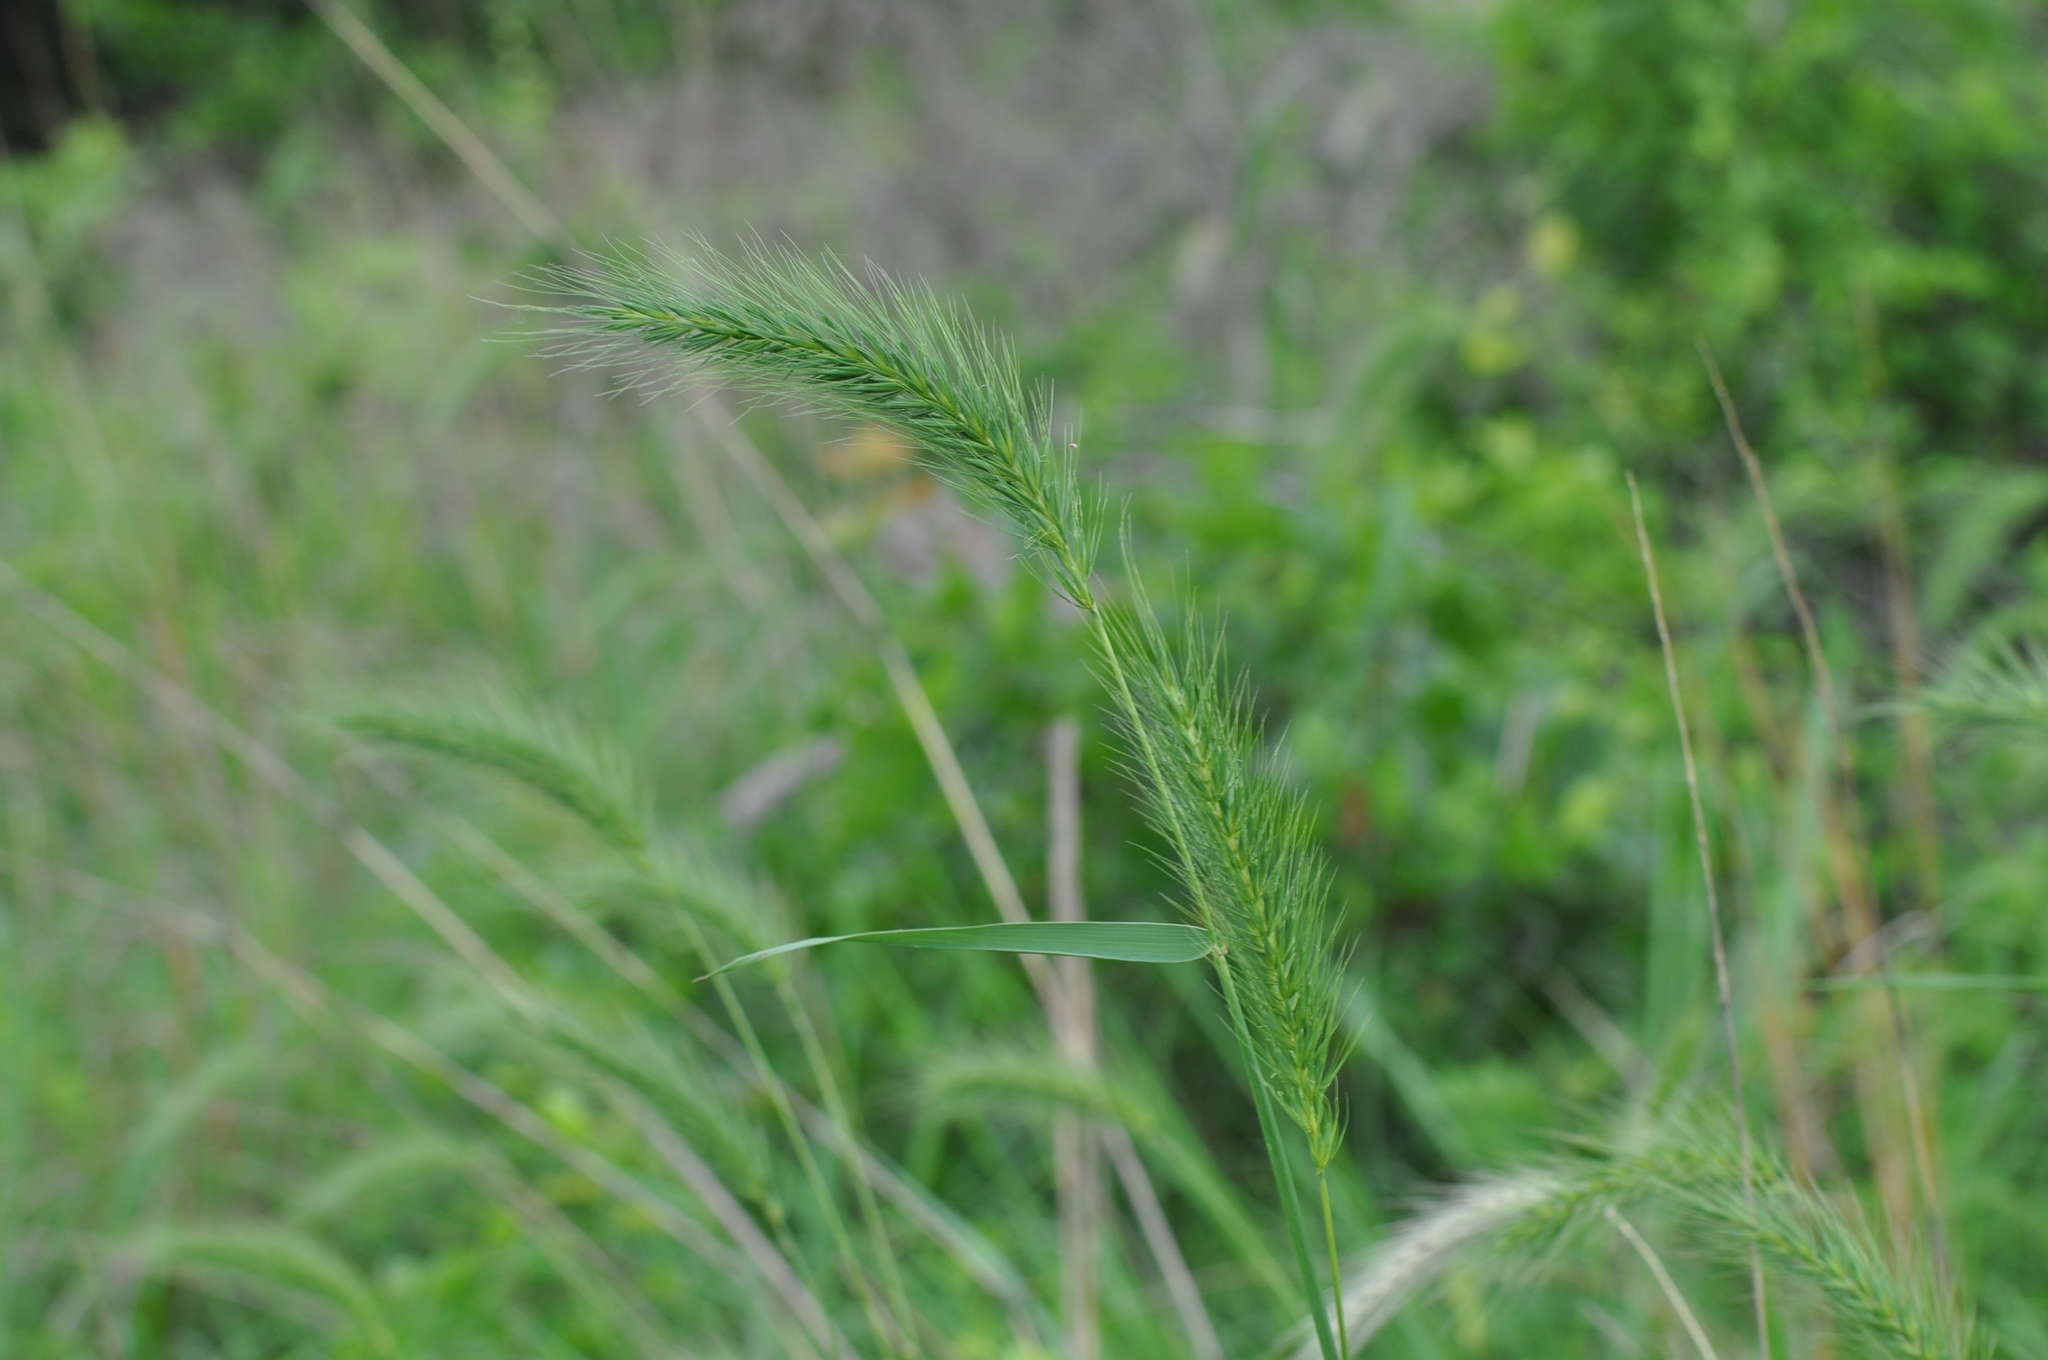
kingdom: Plantae
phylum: Tracheophyta
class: Liliopsida
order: Poales
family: Poaceae
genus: Elymus
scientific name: Elymus canadensis
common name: Canada wild rye
